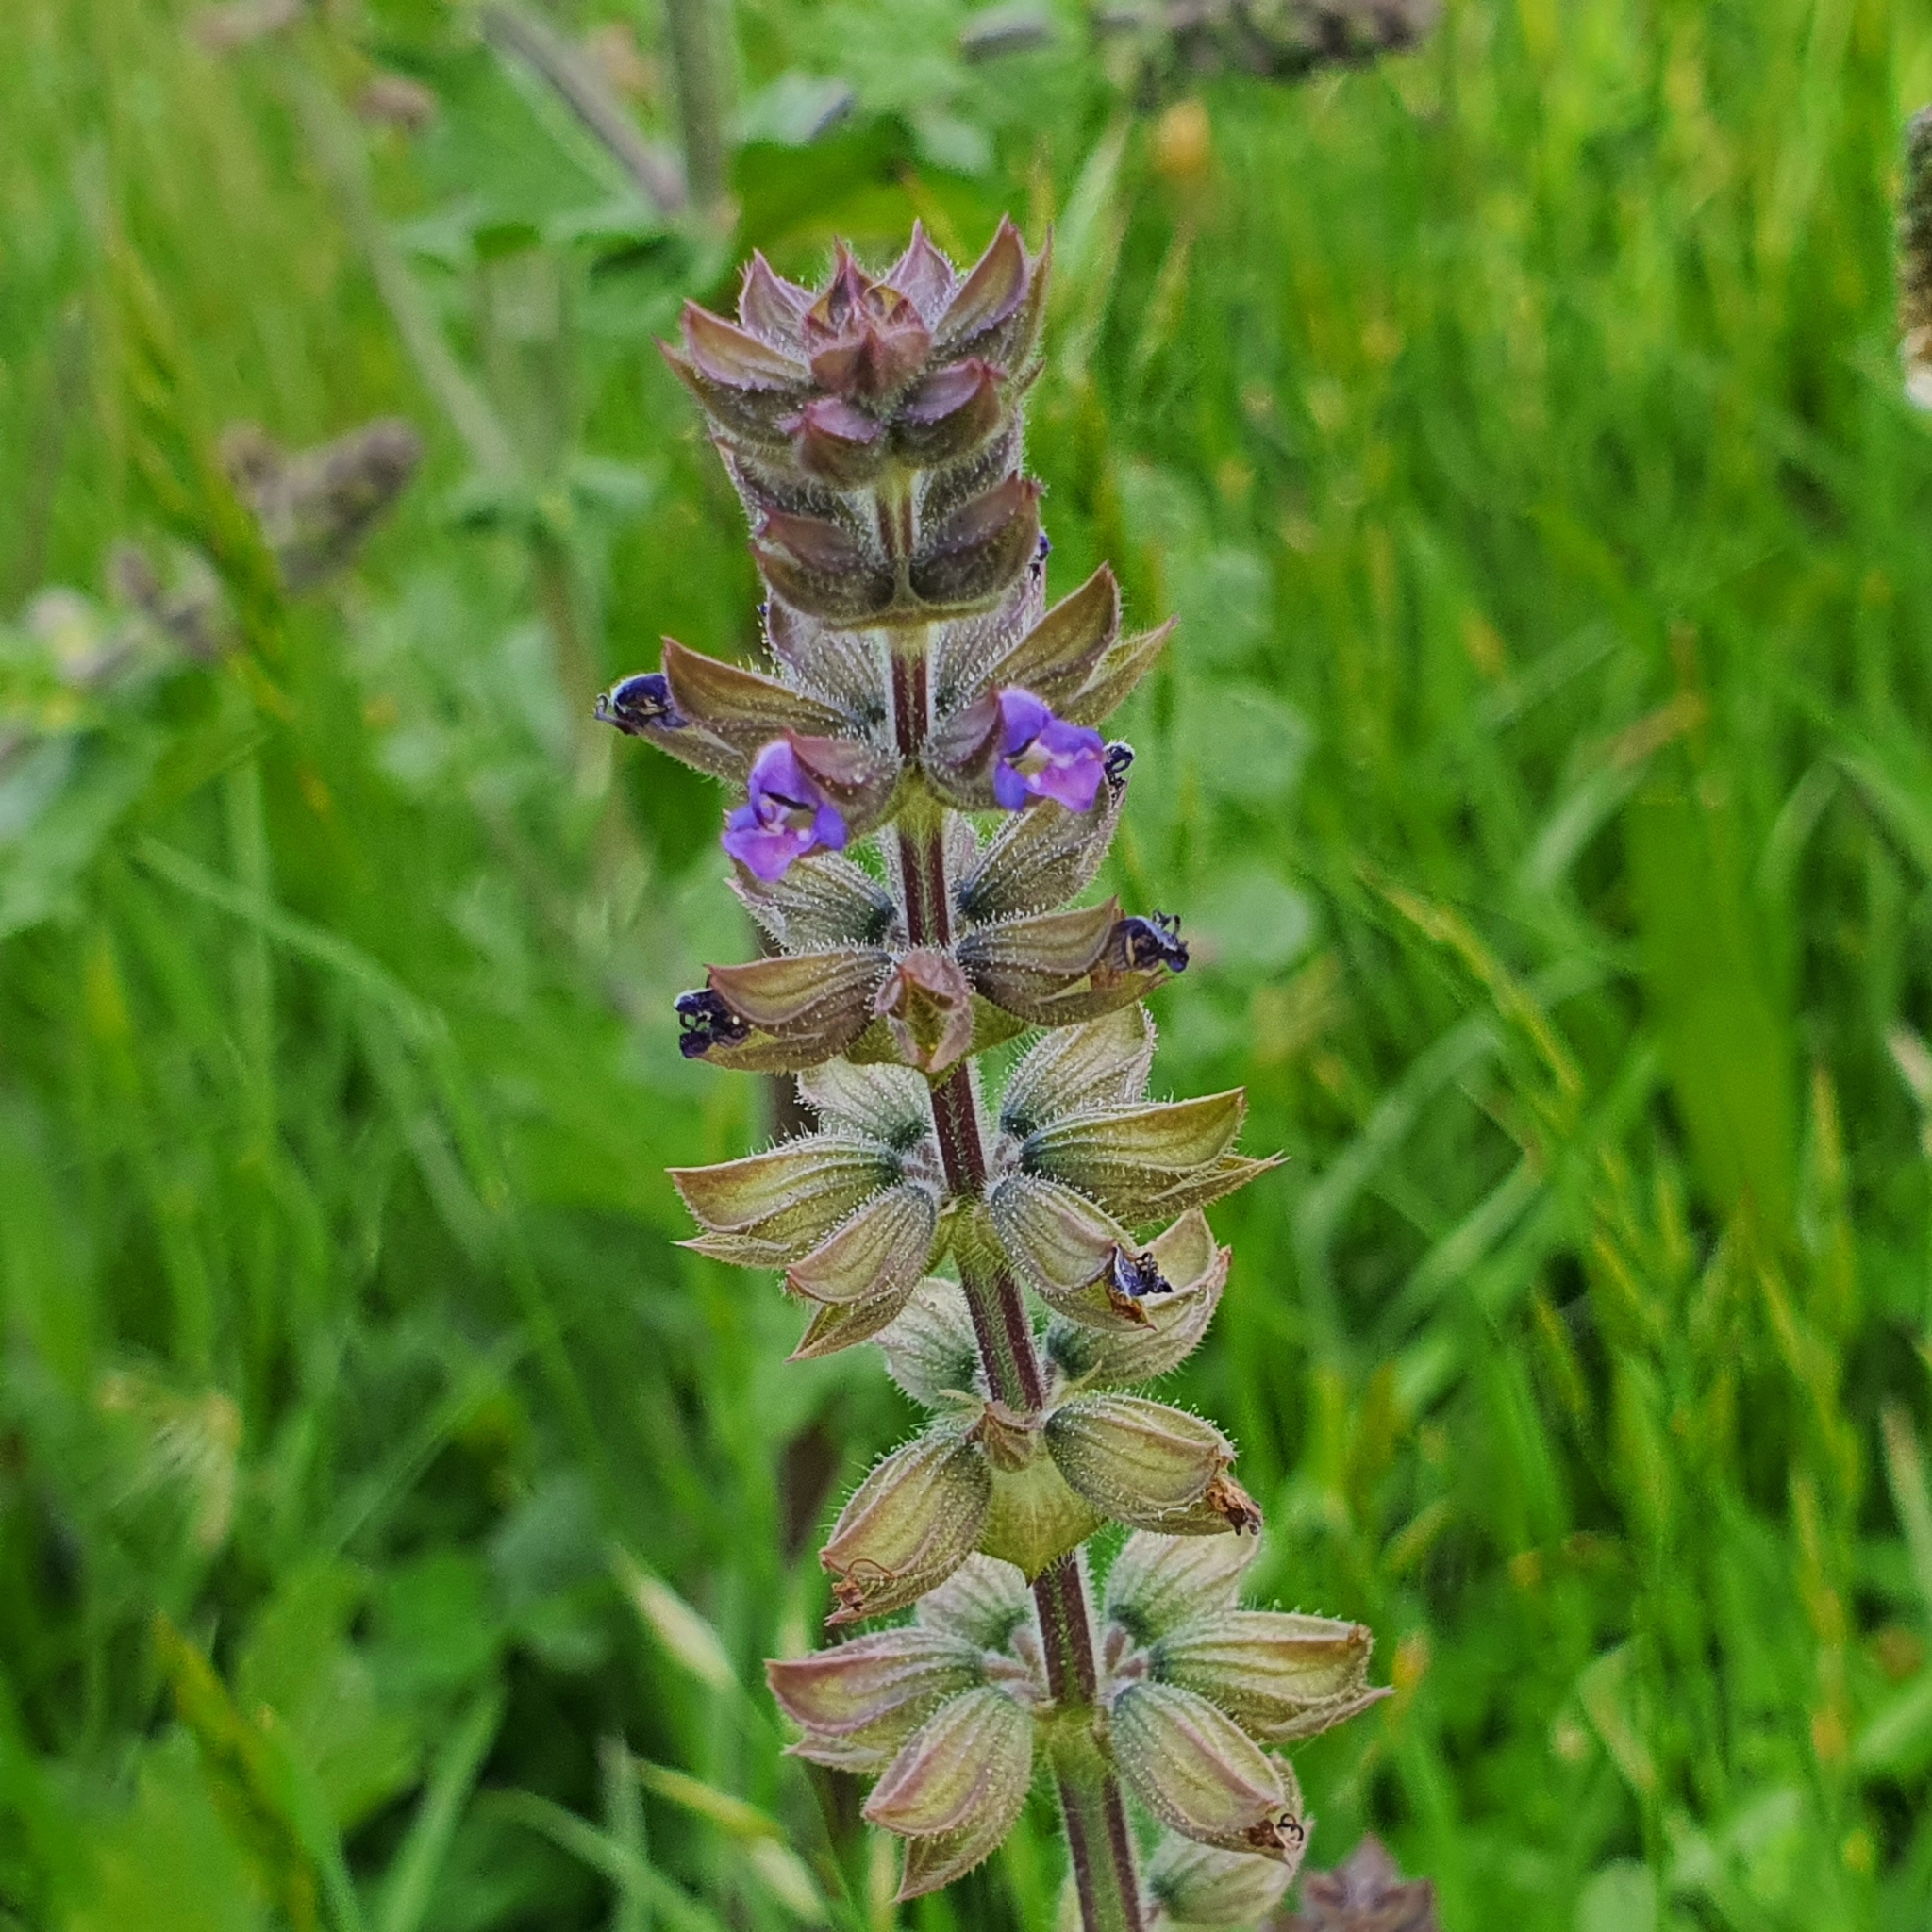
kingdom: Plantae
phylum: Tracheophyta
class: Magnoliopsida
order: Lamiales
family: Lamiaceae
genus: Salvia
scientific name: Salvia verbenaca
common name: Wild clary
